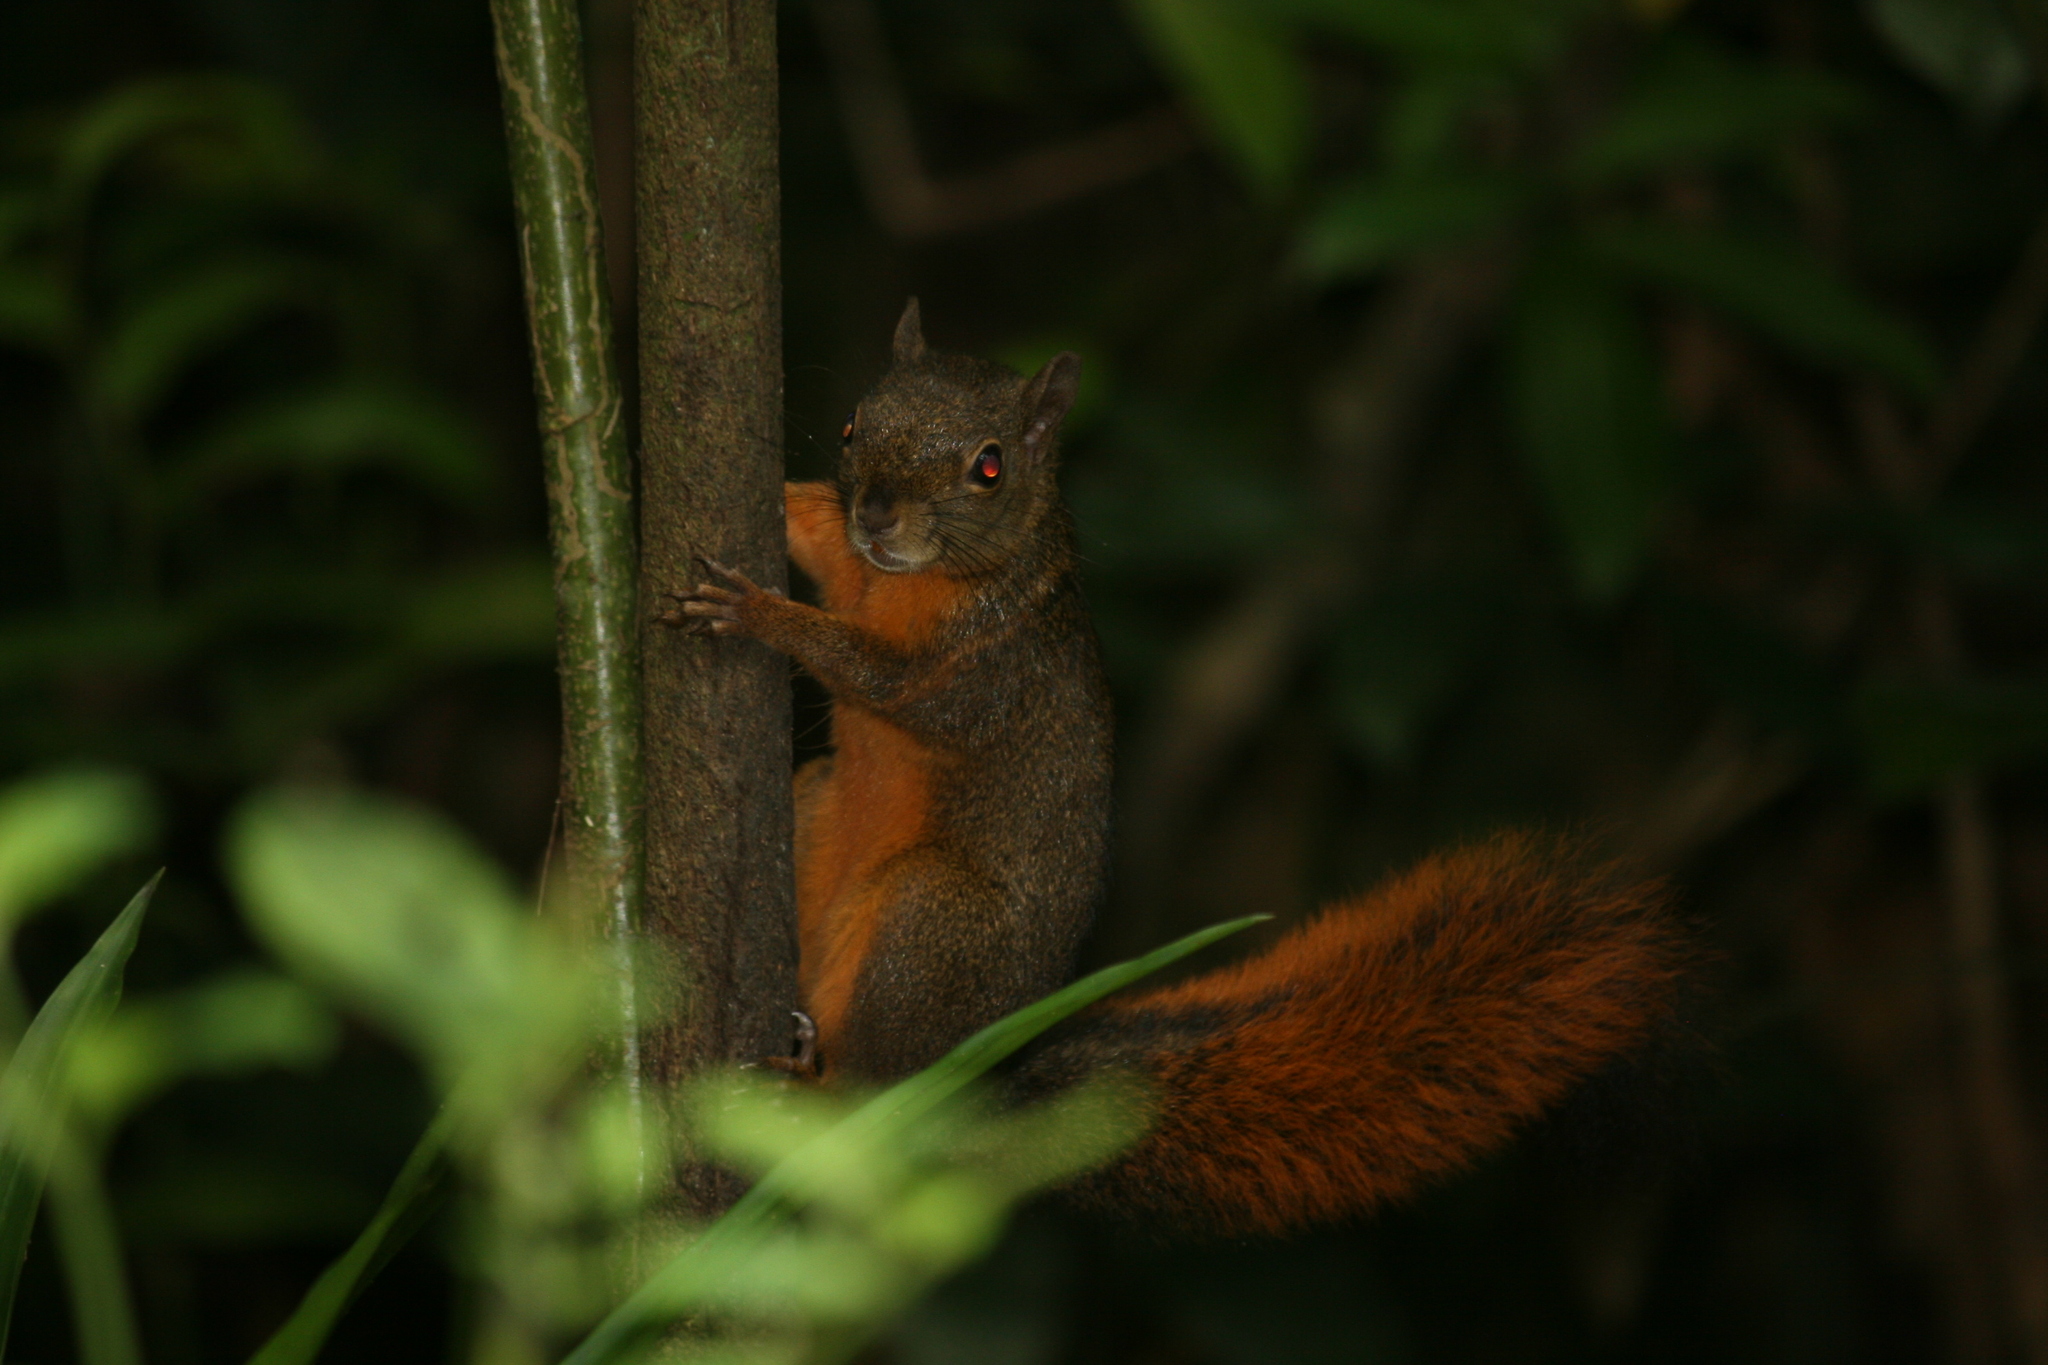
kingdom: Animalia
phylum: Chordata
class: Mammalia
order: Rodentia
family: Sciuridae
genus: Sciurus
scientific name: Sciurus granatensis
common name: Red-tailed squirrel
